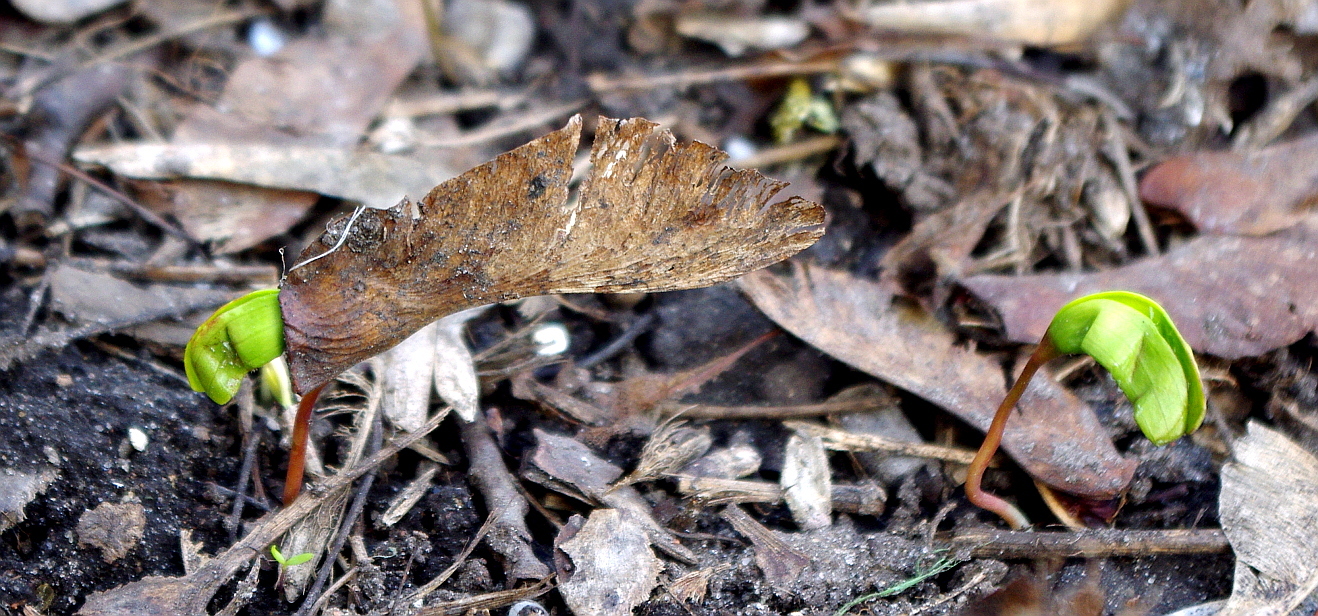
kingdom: Plantae
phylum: Tracheophyta
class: Magnoliopsida
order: Sapindales
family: Sapindaceae
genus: Acer
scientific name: Acer platanoides
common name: Norway maple
